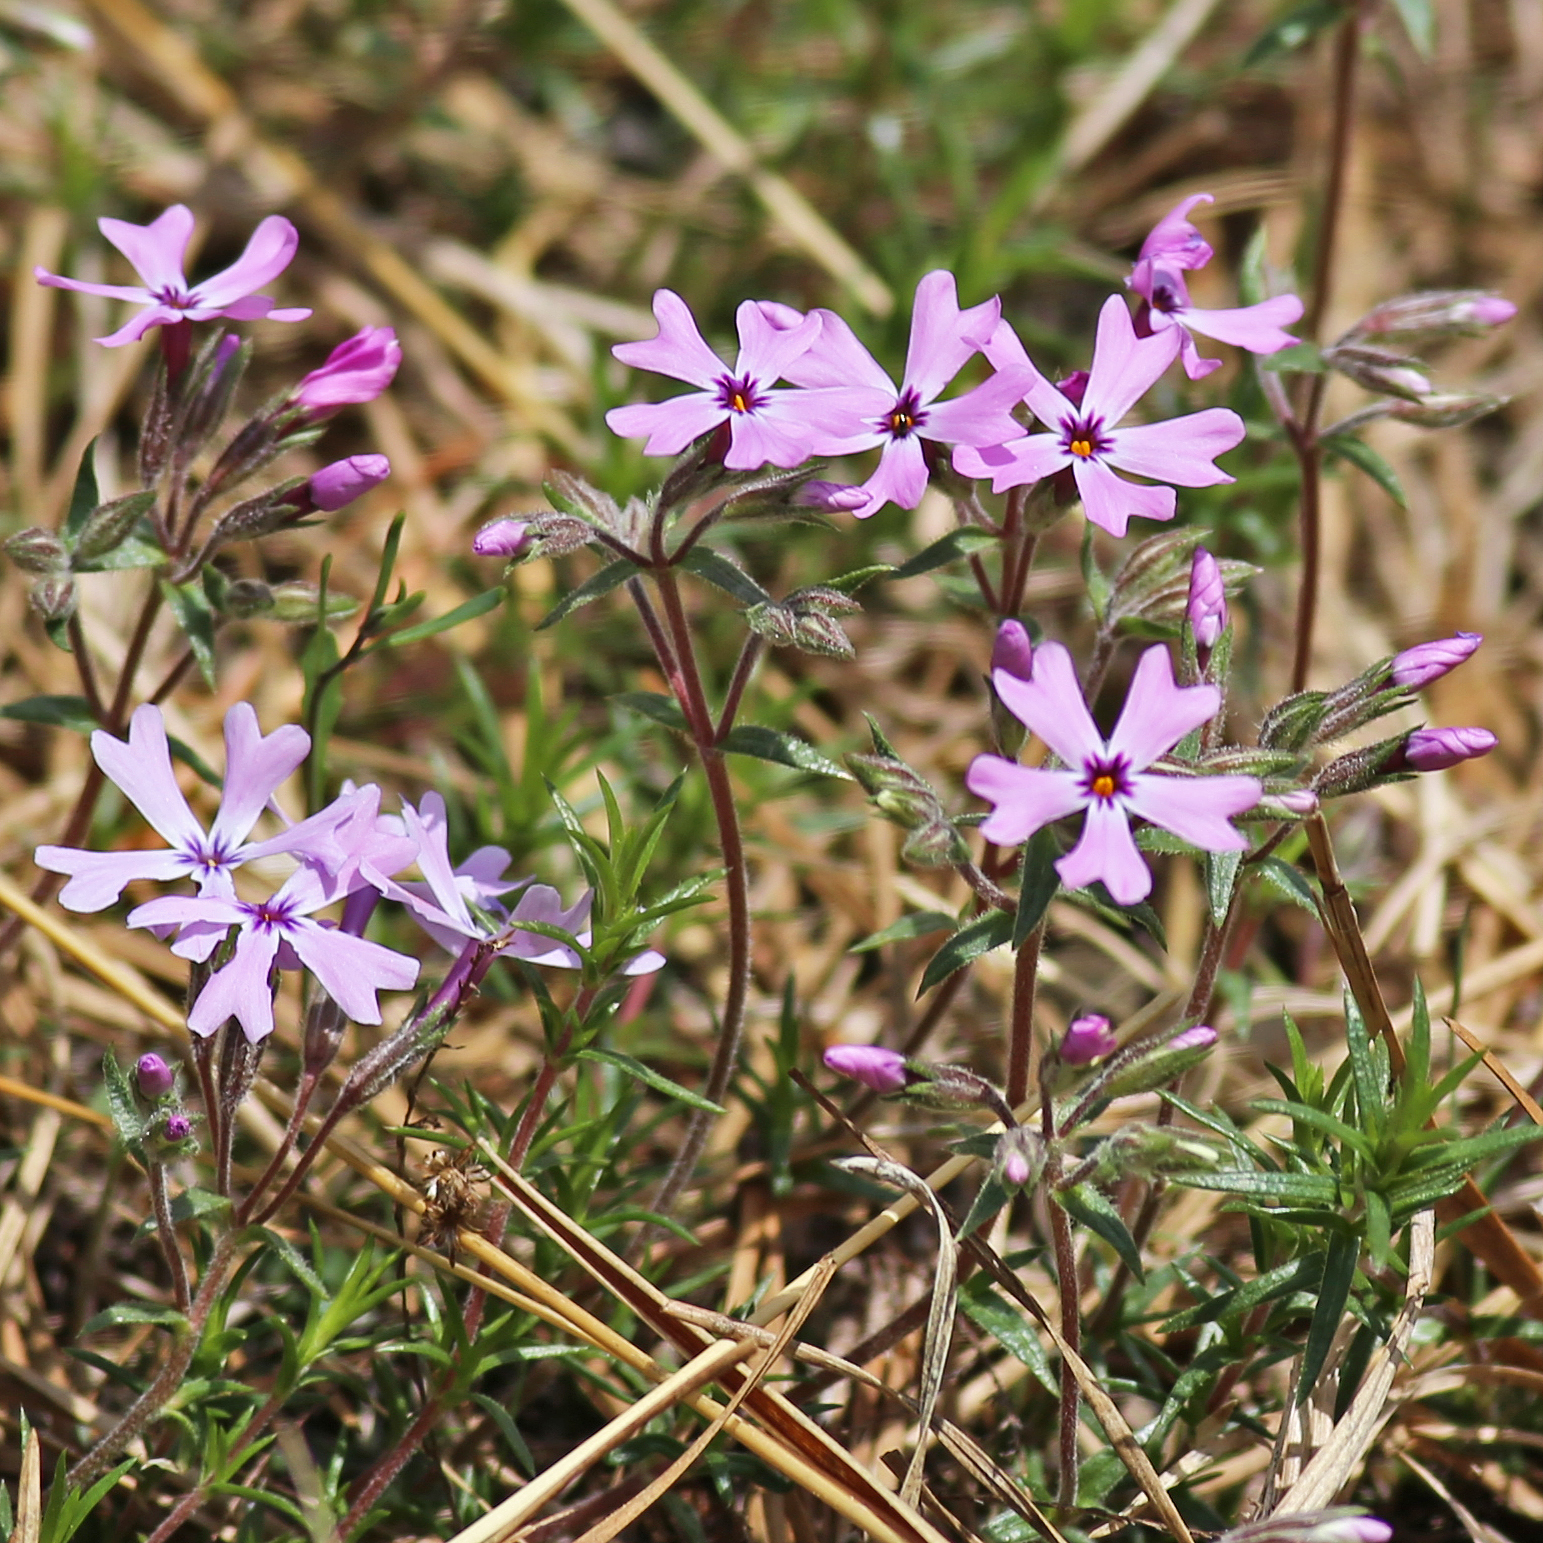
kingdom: Plantae
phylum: Tracheophyta
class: Magnoliopsida
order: Ericales
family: Polemoniaceae
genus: Phlox
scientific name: Phlox subulata
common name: Moss phlox
